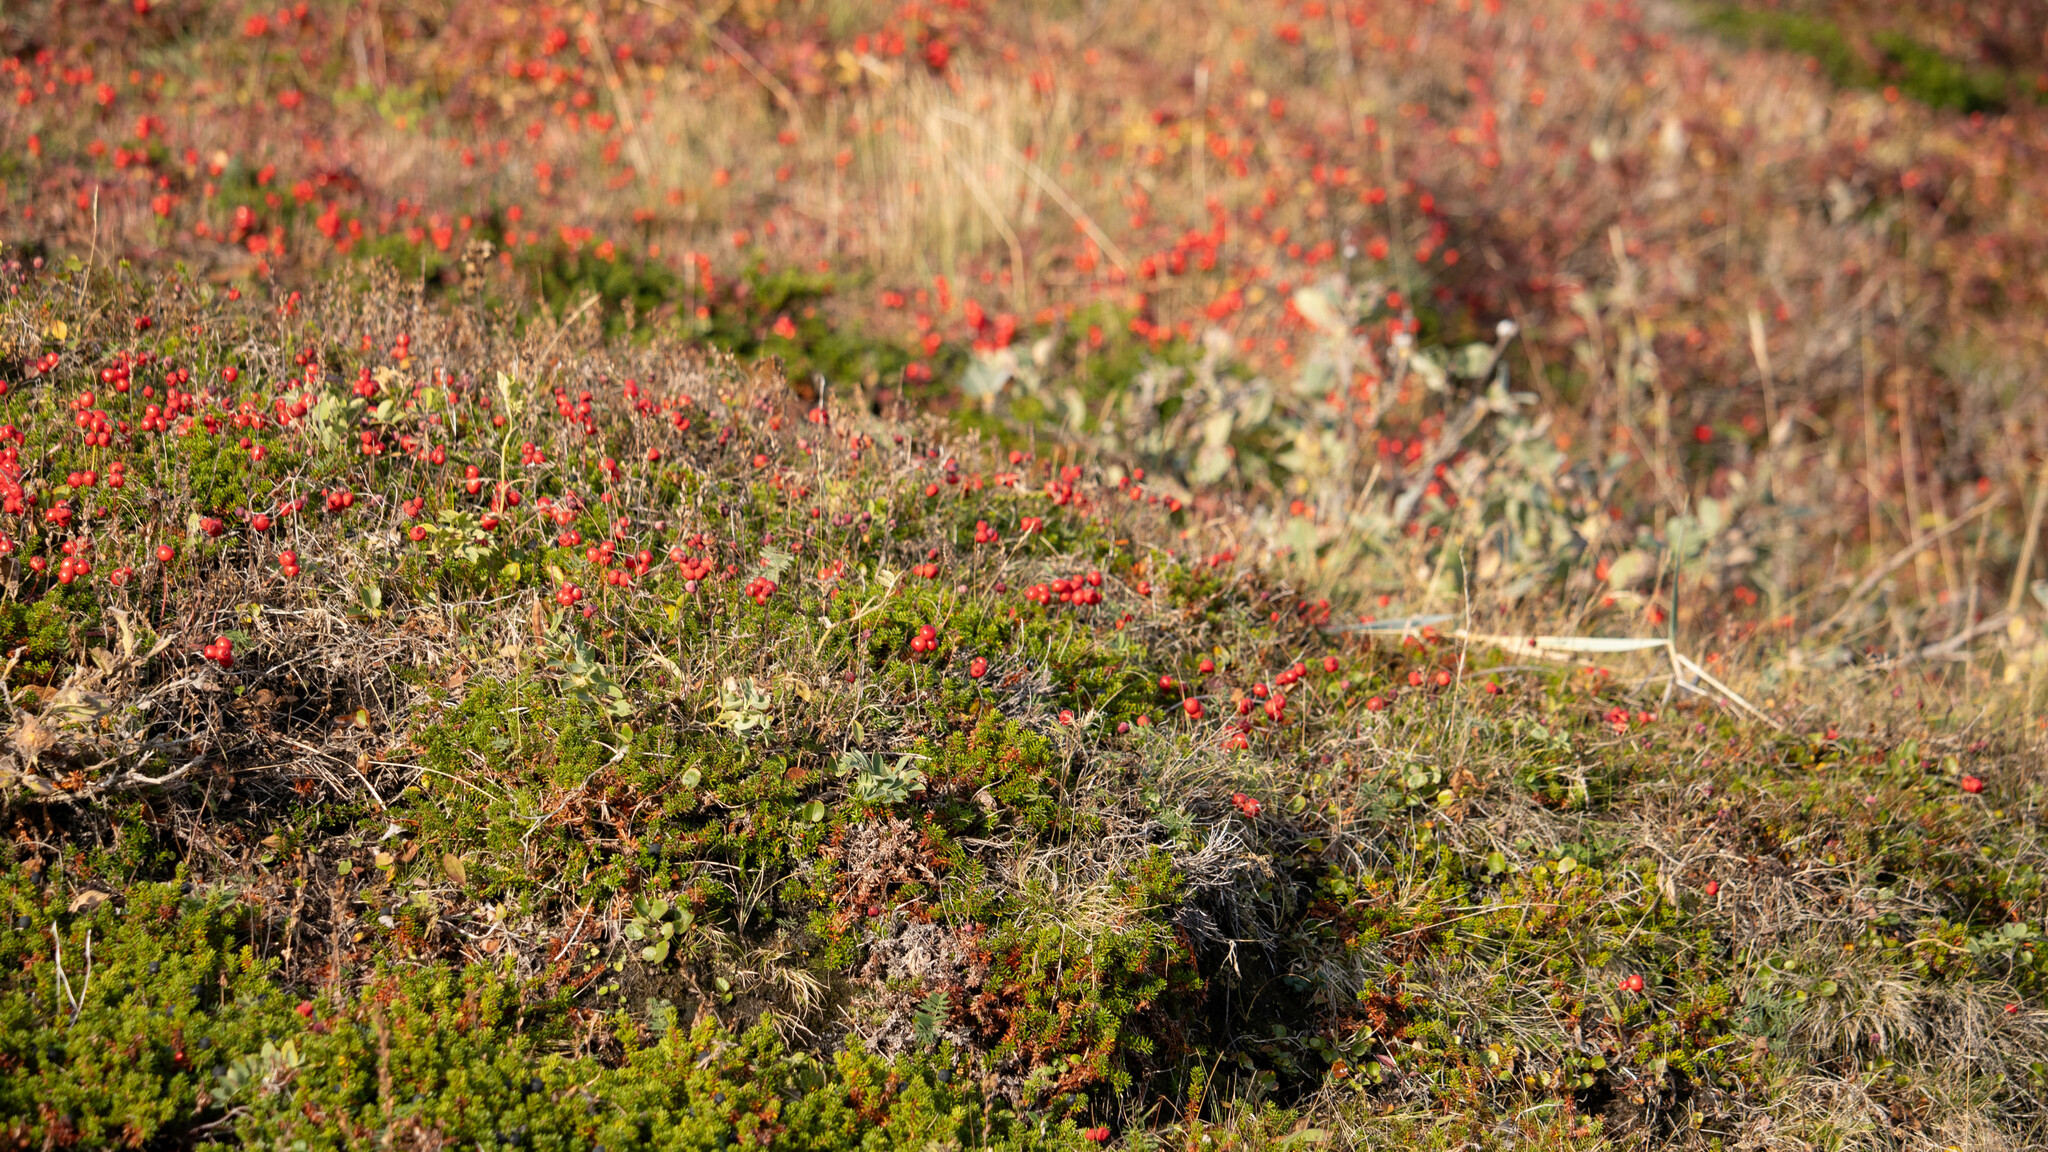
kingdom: Plantae
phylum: Tracheophyta
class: Magnoliopsida
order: Cornales
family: Cornaceae
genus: Cornus
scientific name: Cornus suecica
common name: Dwarf cornel
